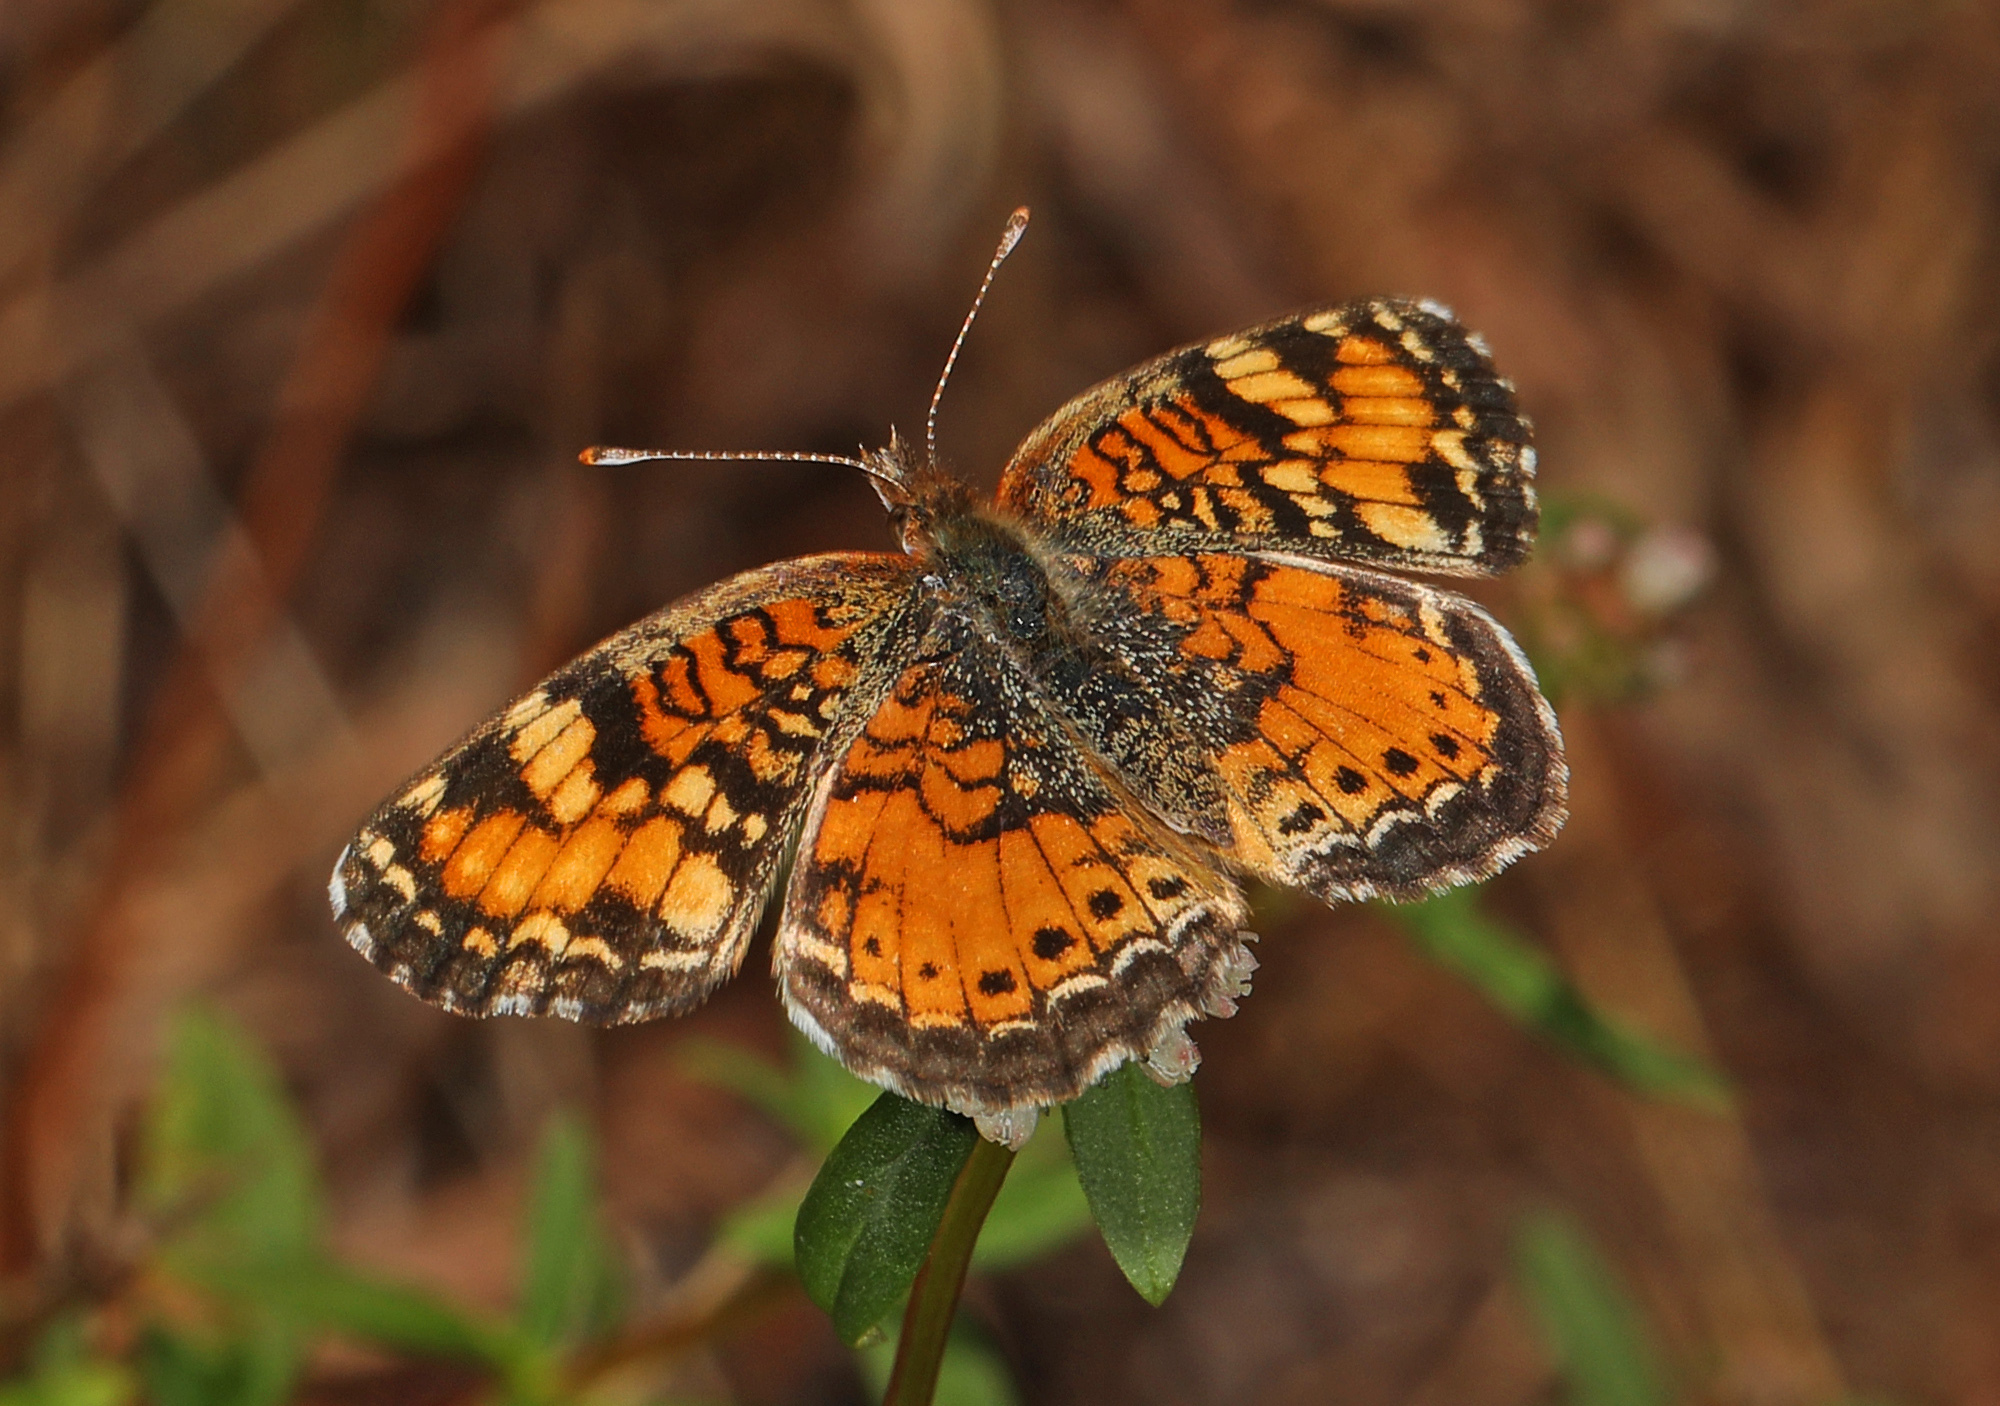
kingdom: Animalia
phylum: Arthropoda
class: Insecta
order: Lepidoptera
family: Nymphalidae
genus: Phyciodes
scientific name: Phyciodes phaon
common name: Phaon crescent
